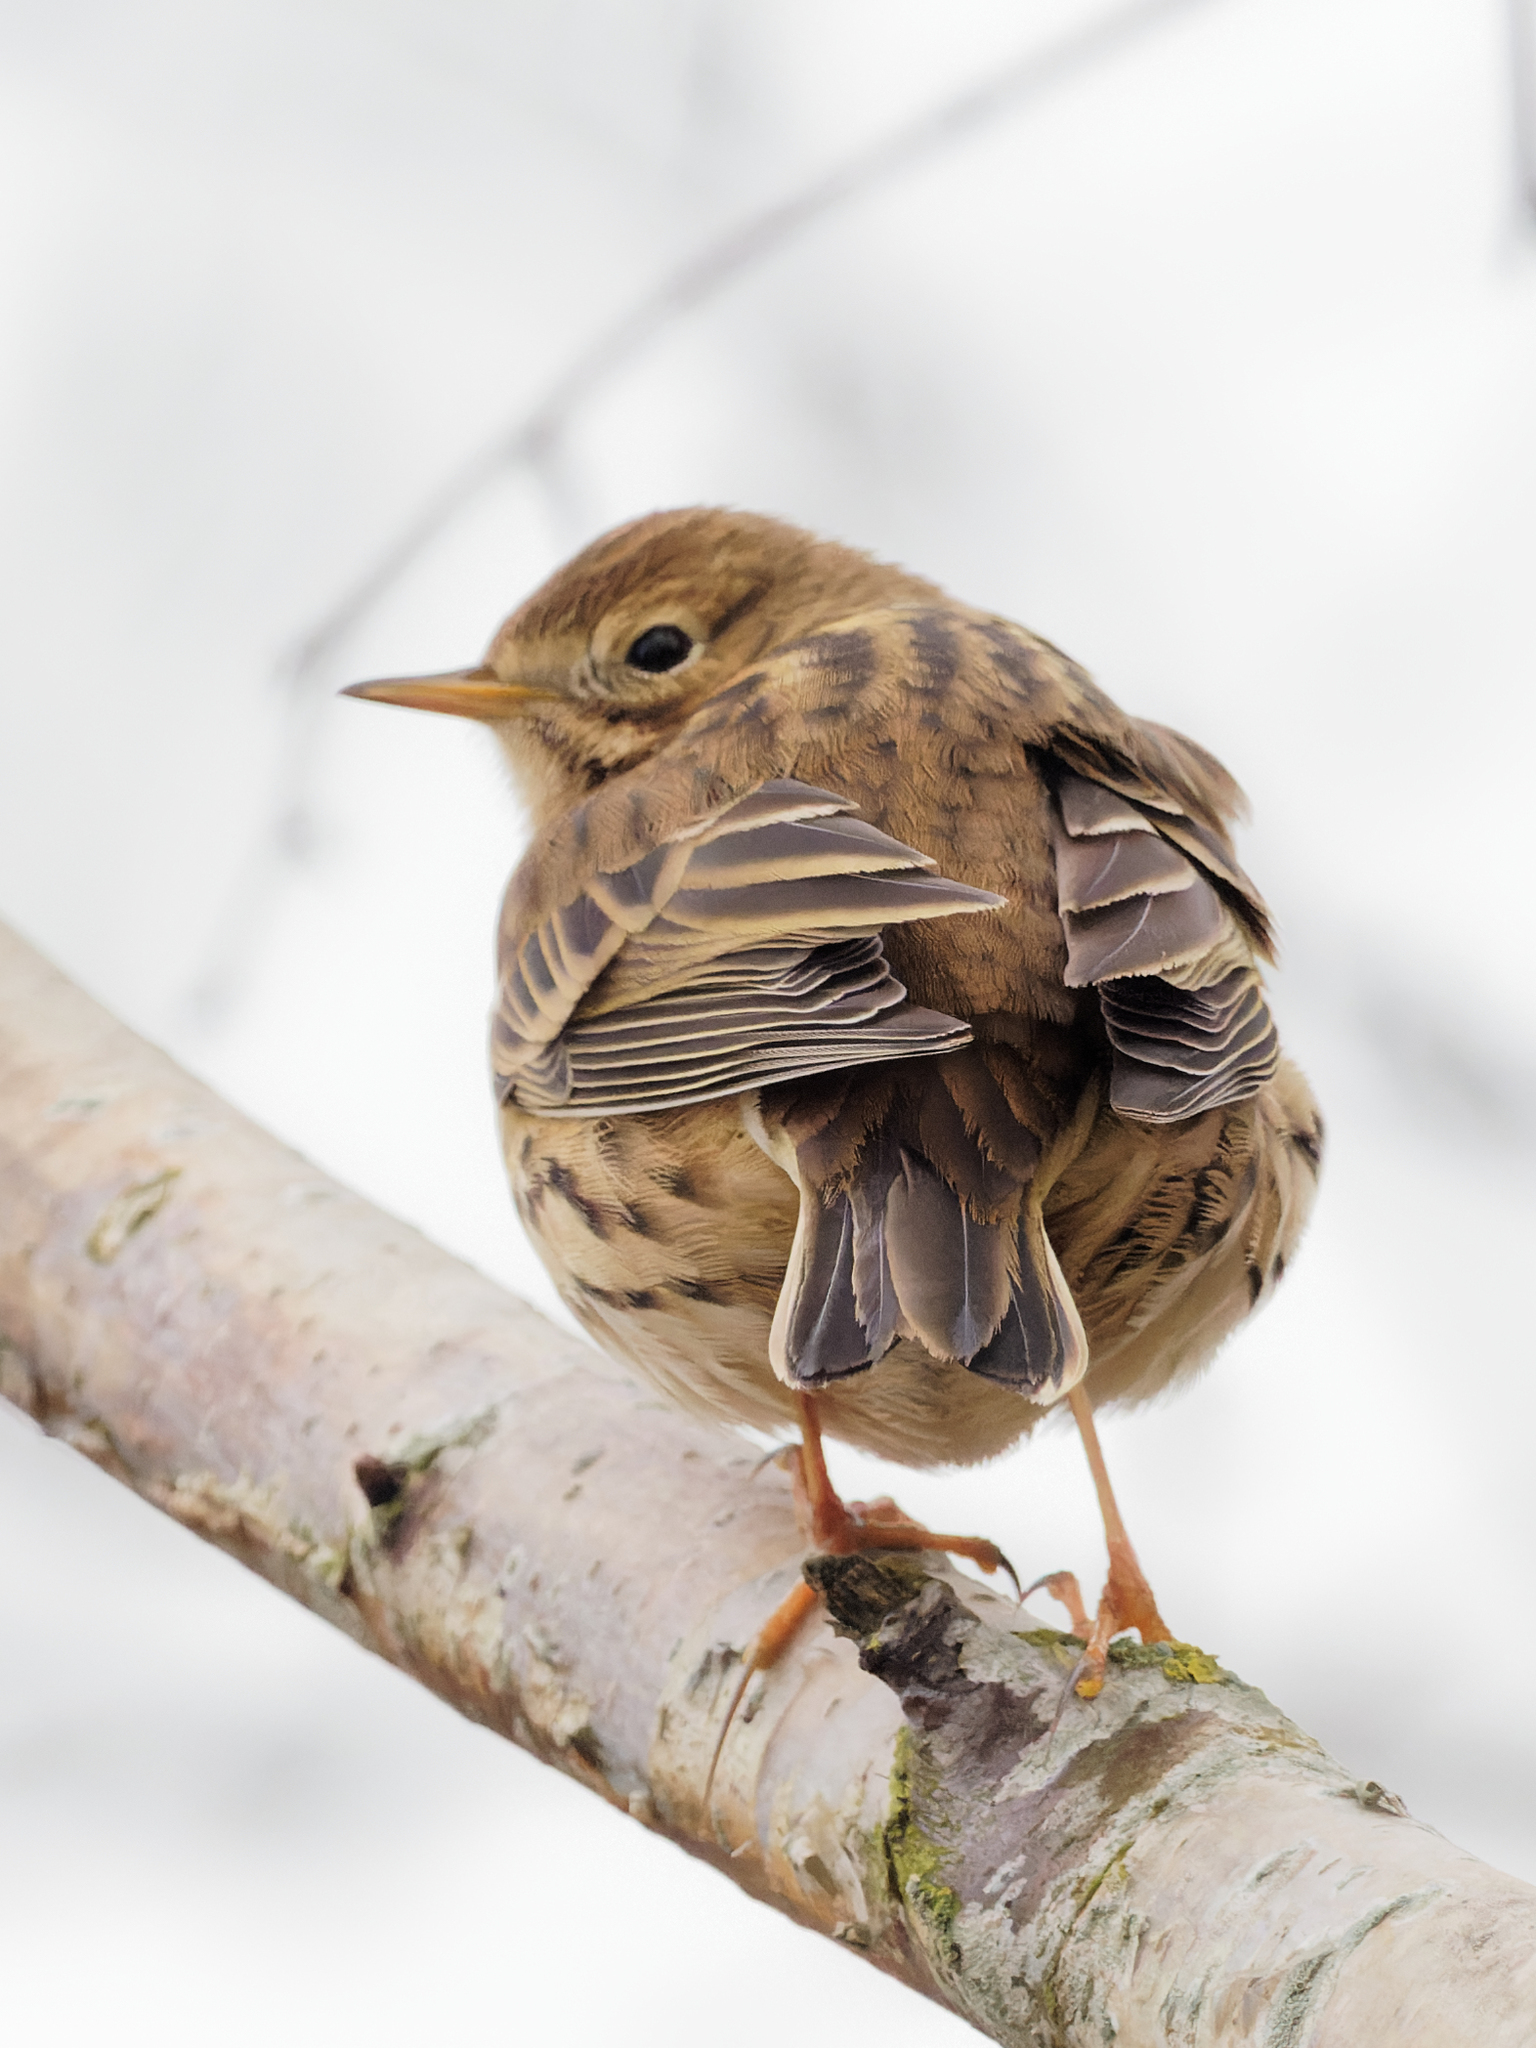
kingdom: Animalia
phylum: Chordata
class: Aves
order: Passeriformes
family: Motacillidae
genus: Anthus
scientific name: Anthus pratensis
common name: Meadow pipit
